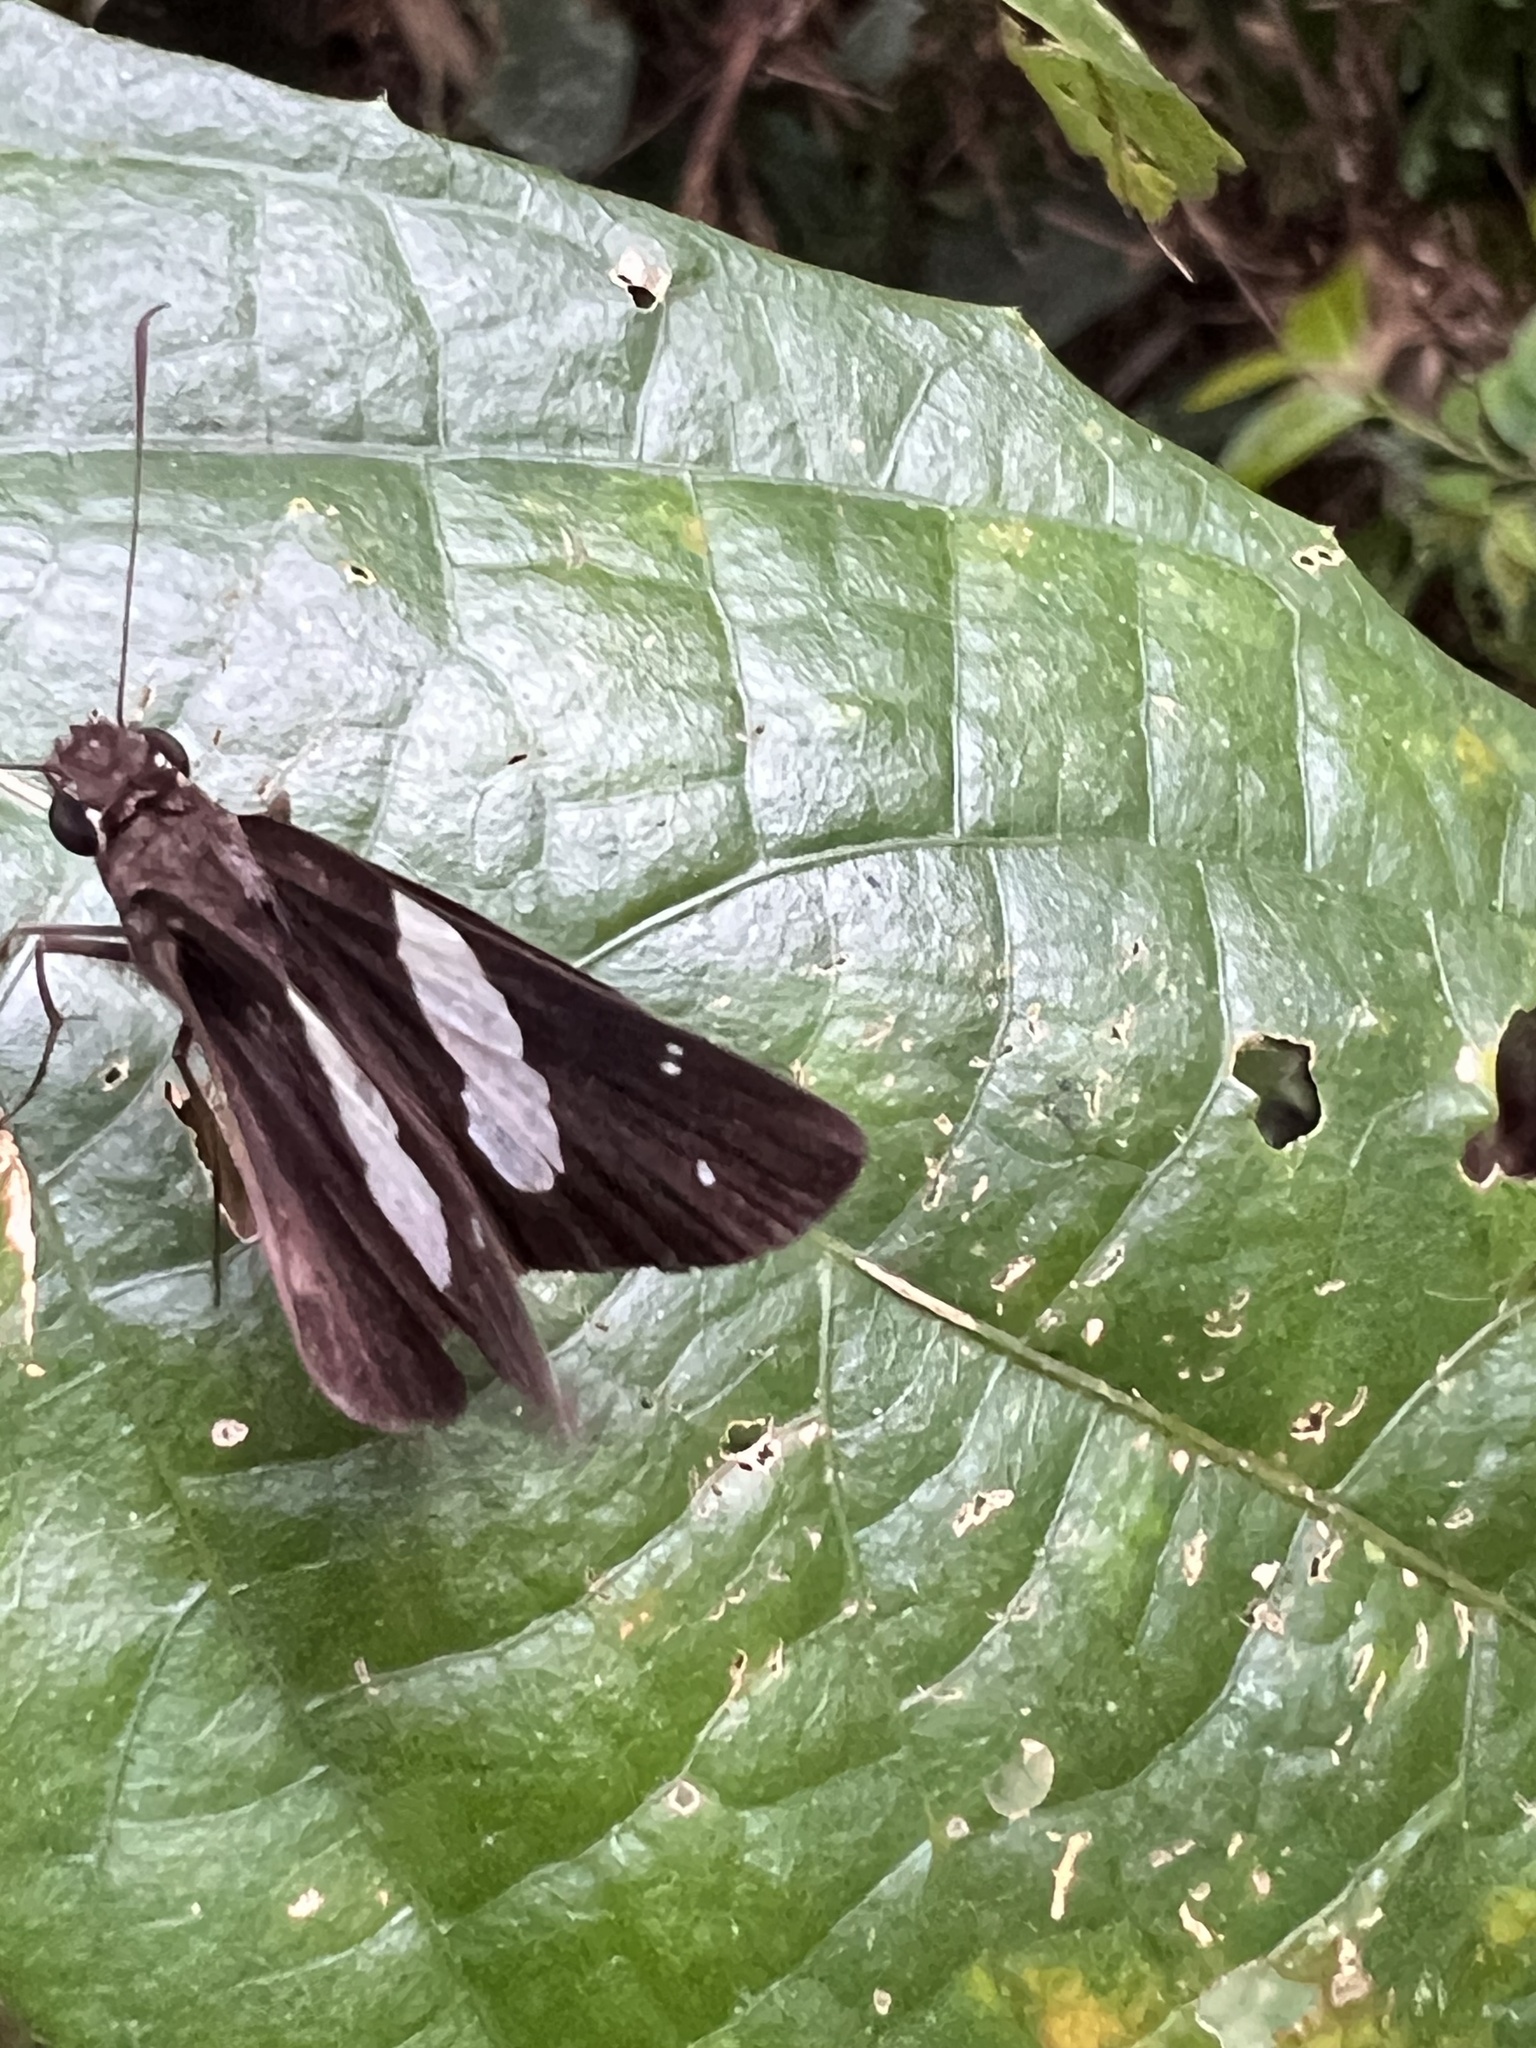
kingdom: Animalia
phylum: Arthropoda
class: Insecta
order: Lepidoptera
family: Hesperiidae
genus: Notocrypta
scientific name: Notocrypta waigensis
